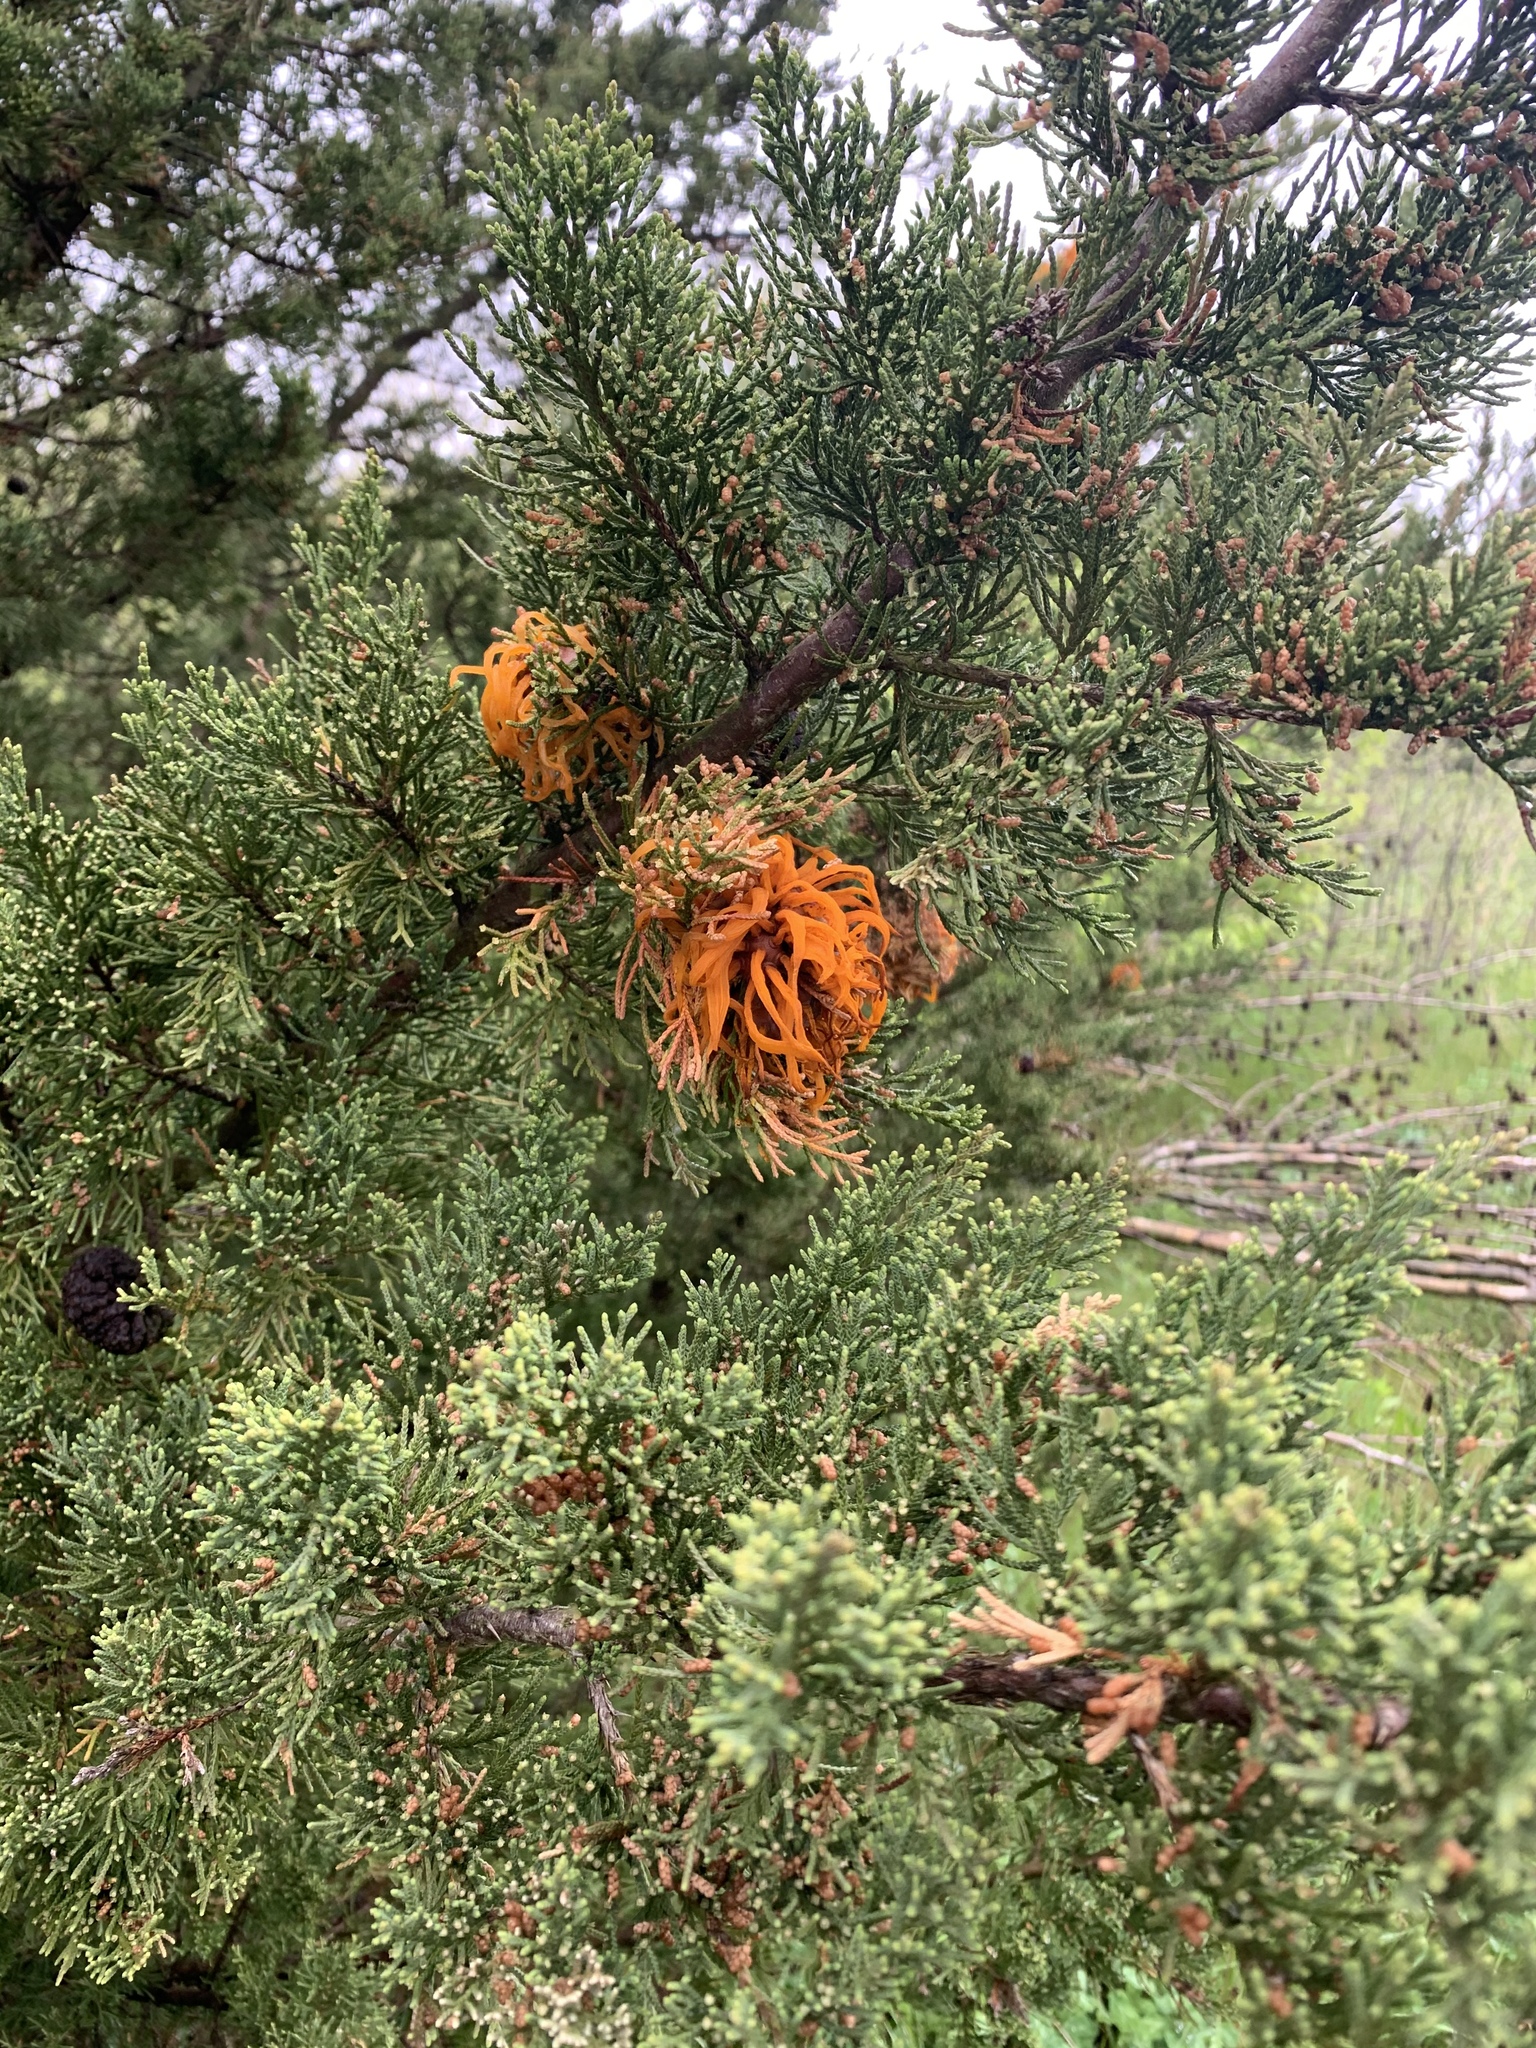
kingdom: Fungi
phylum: Basidiomycota
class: Pucciniomycetes
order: Pucciniales
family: Gymnosporangiaceae
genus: Gymnosporangium
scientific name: Gymnosporangium juniperi-virginianae
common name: Juniper-apple rust
